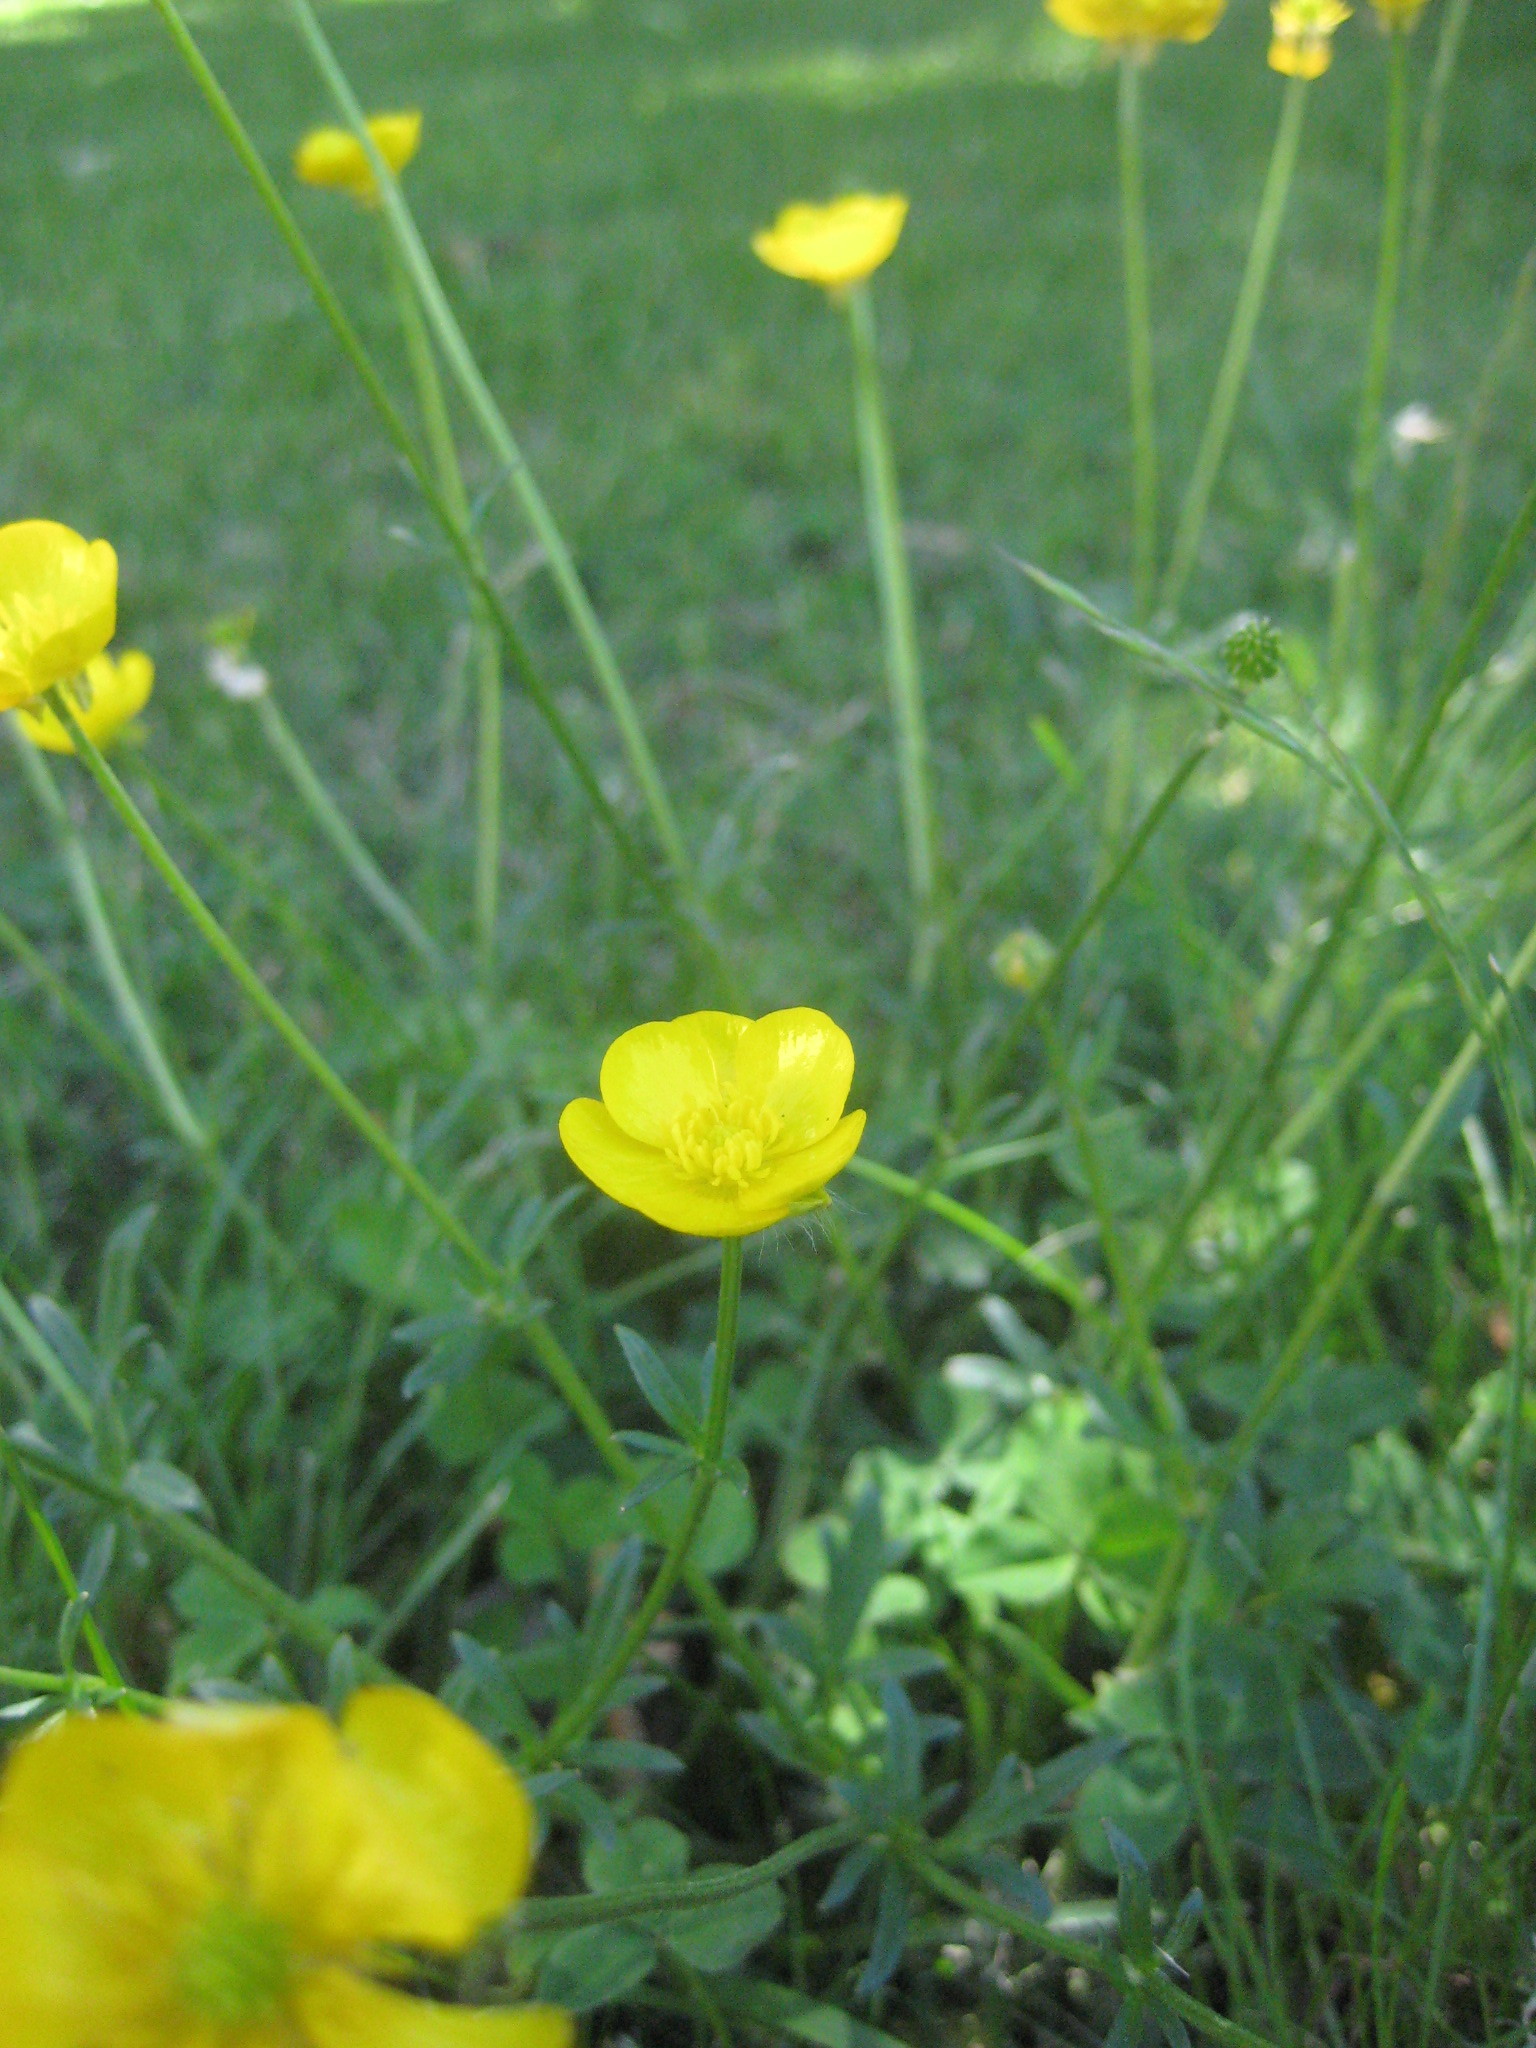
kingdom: Plantae
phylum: Tracheophyta
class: Magnoliopsida
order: Ranunculales
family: Ranunculaceae
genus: Ranunculus
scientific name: Ranunculus bulbosus
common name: Bulbous buttercup
